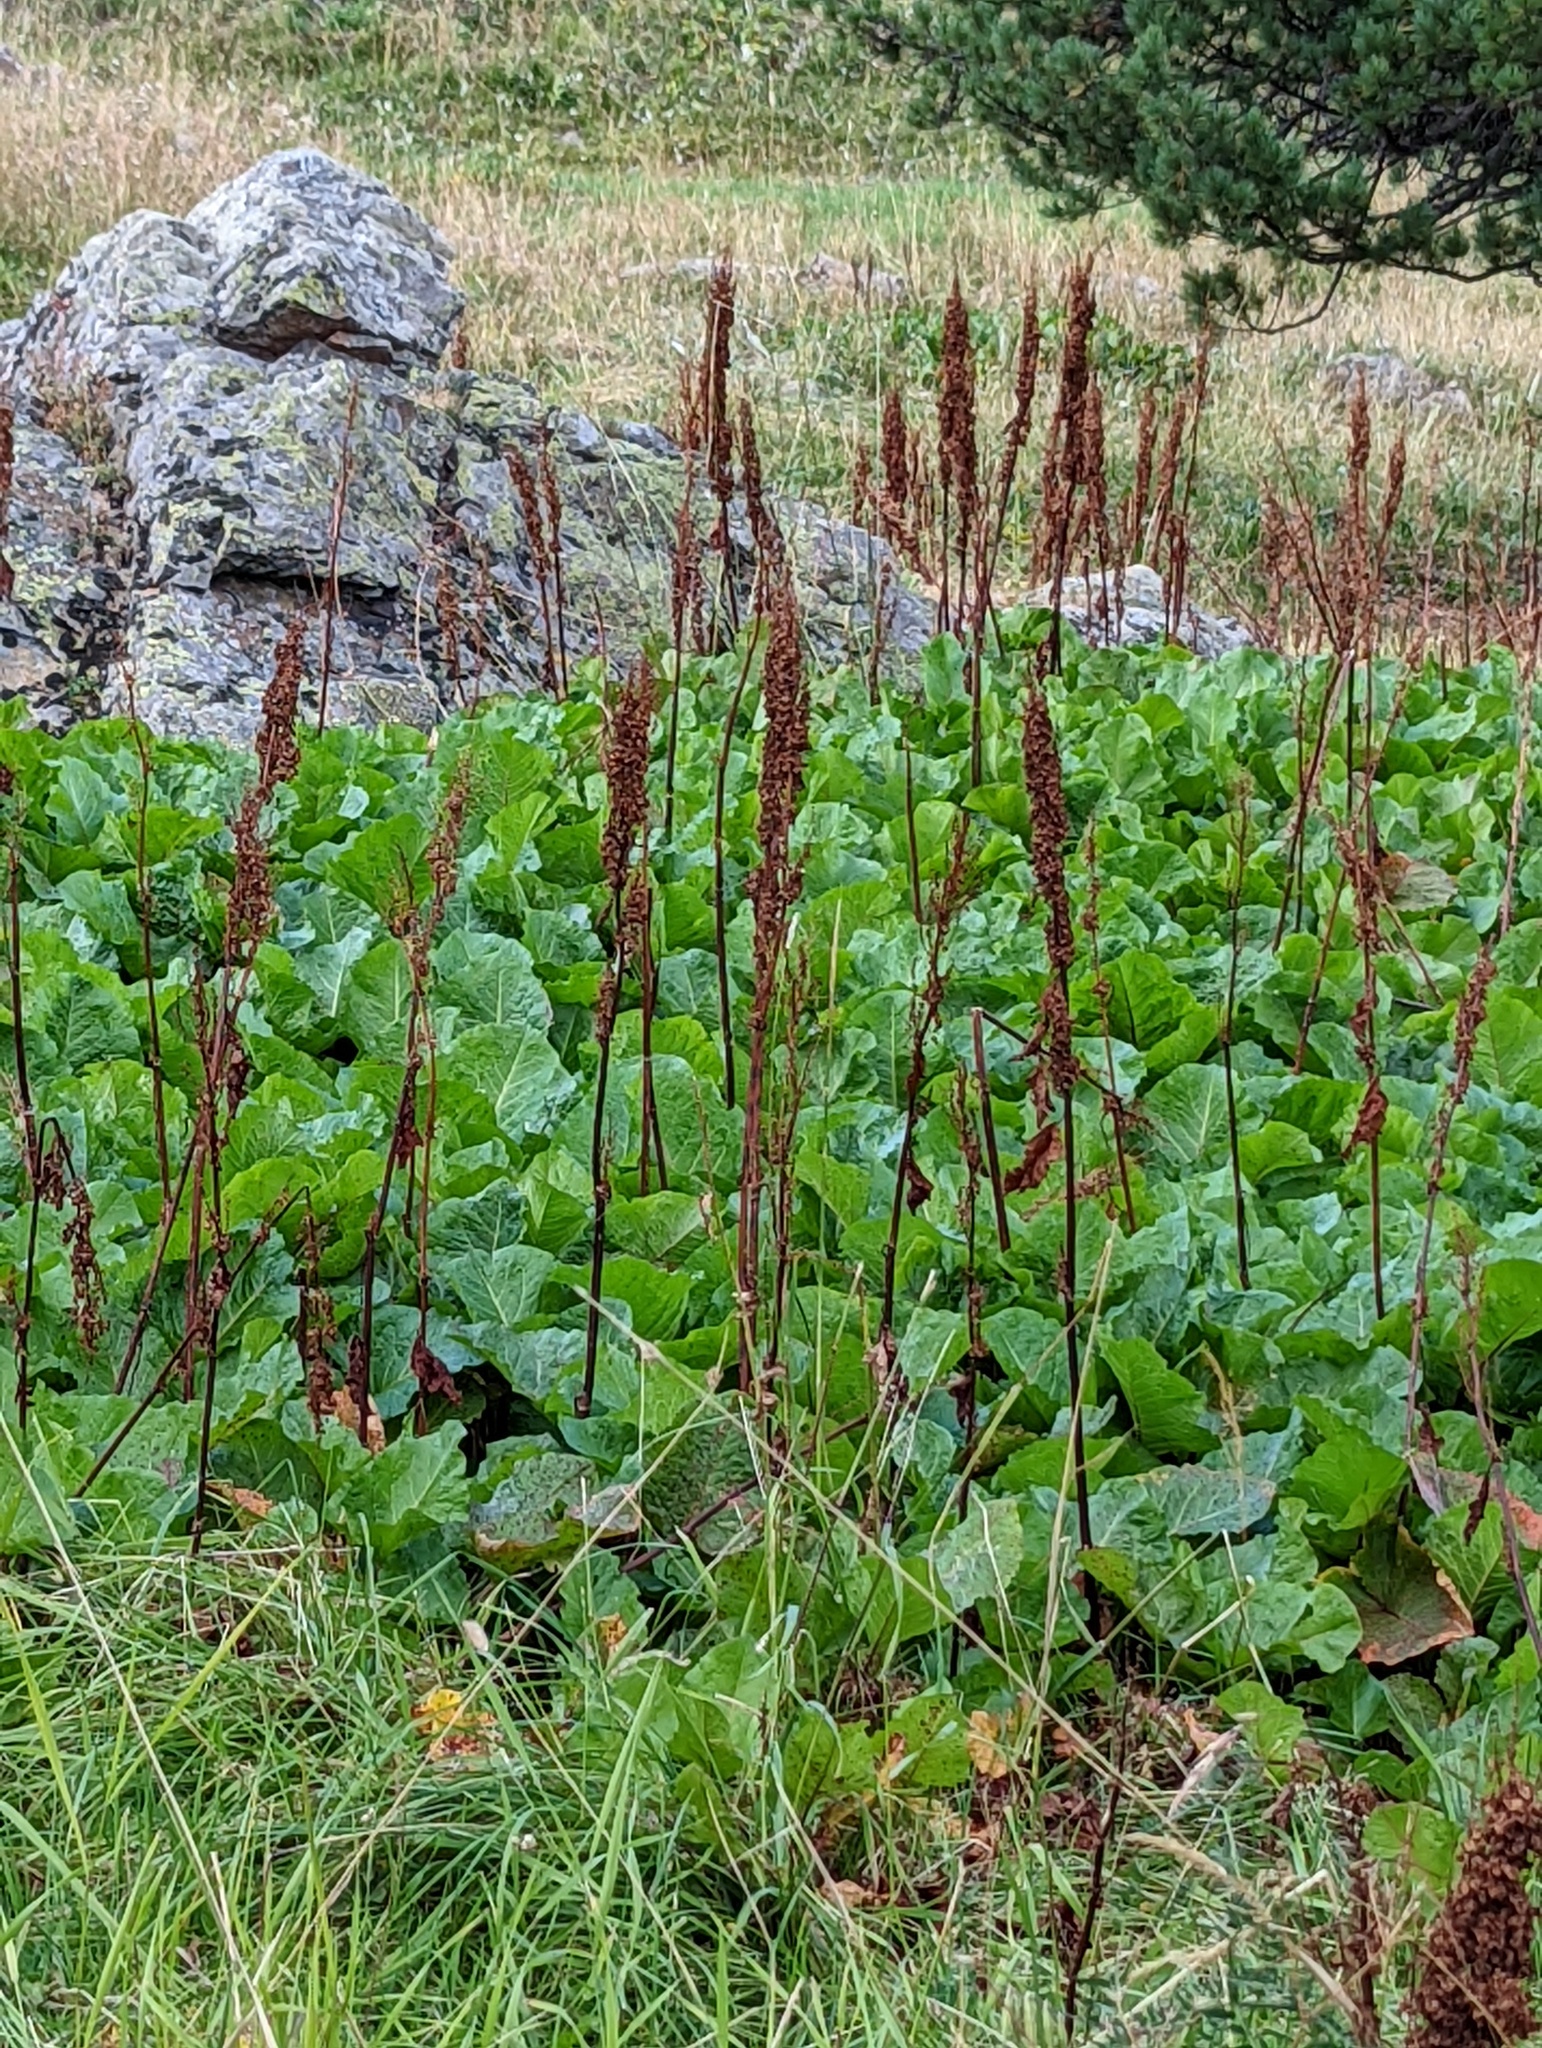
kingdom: Plantae
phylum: Tracheophyta
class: Magnoliopsida
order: Caryophyllales
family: Polygonaceae
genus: Rumex
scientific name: Rumex alpinus
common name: Alpine dock
